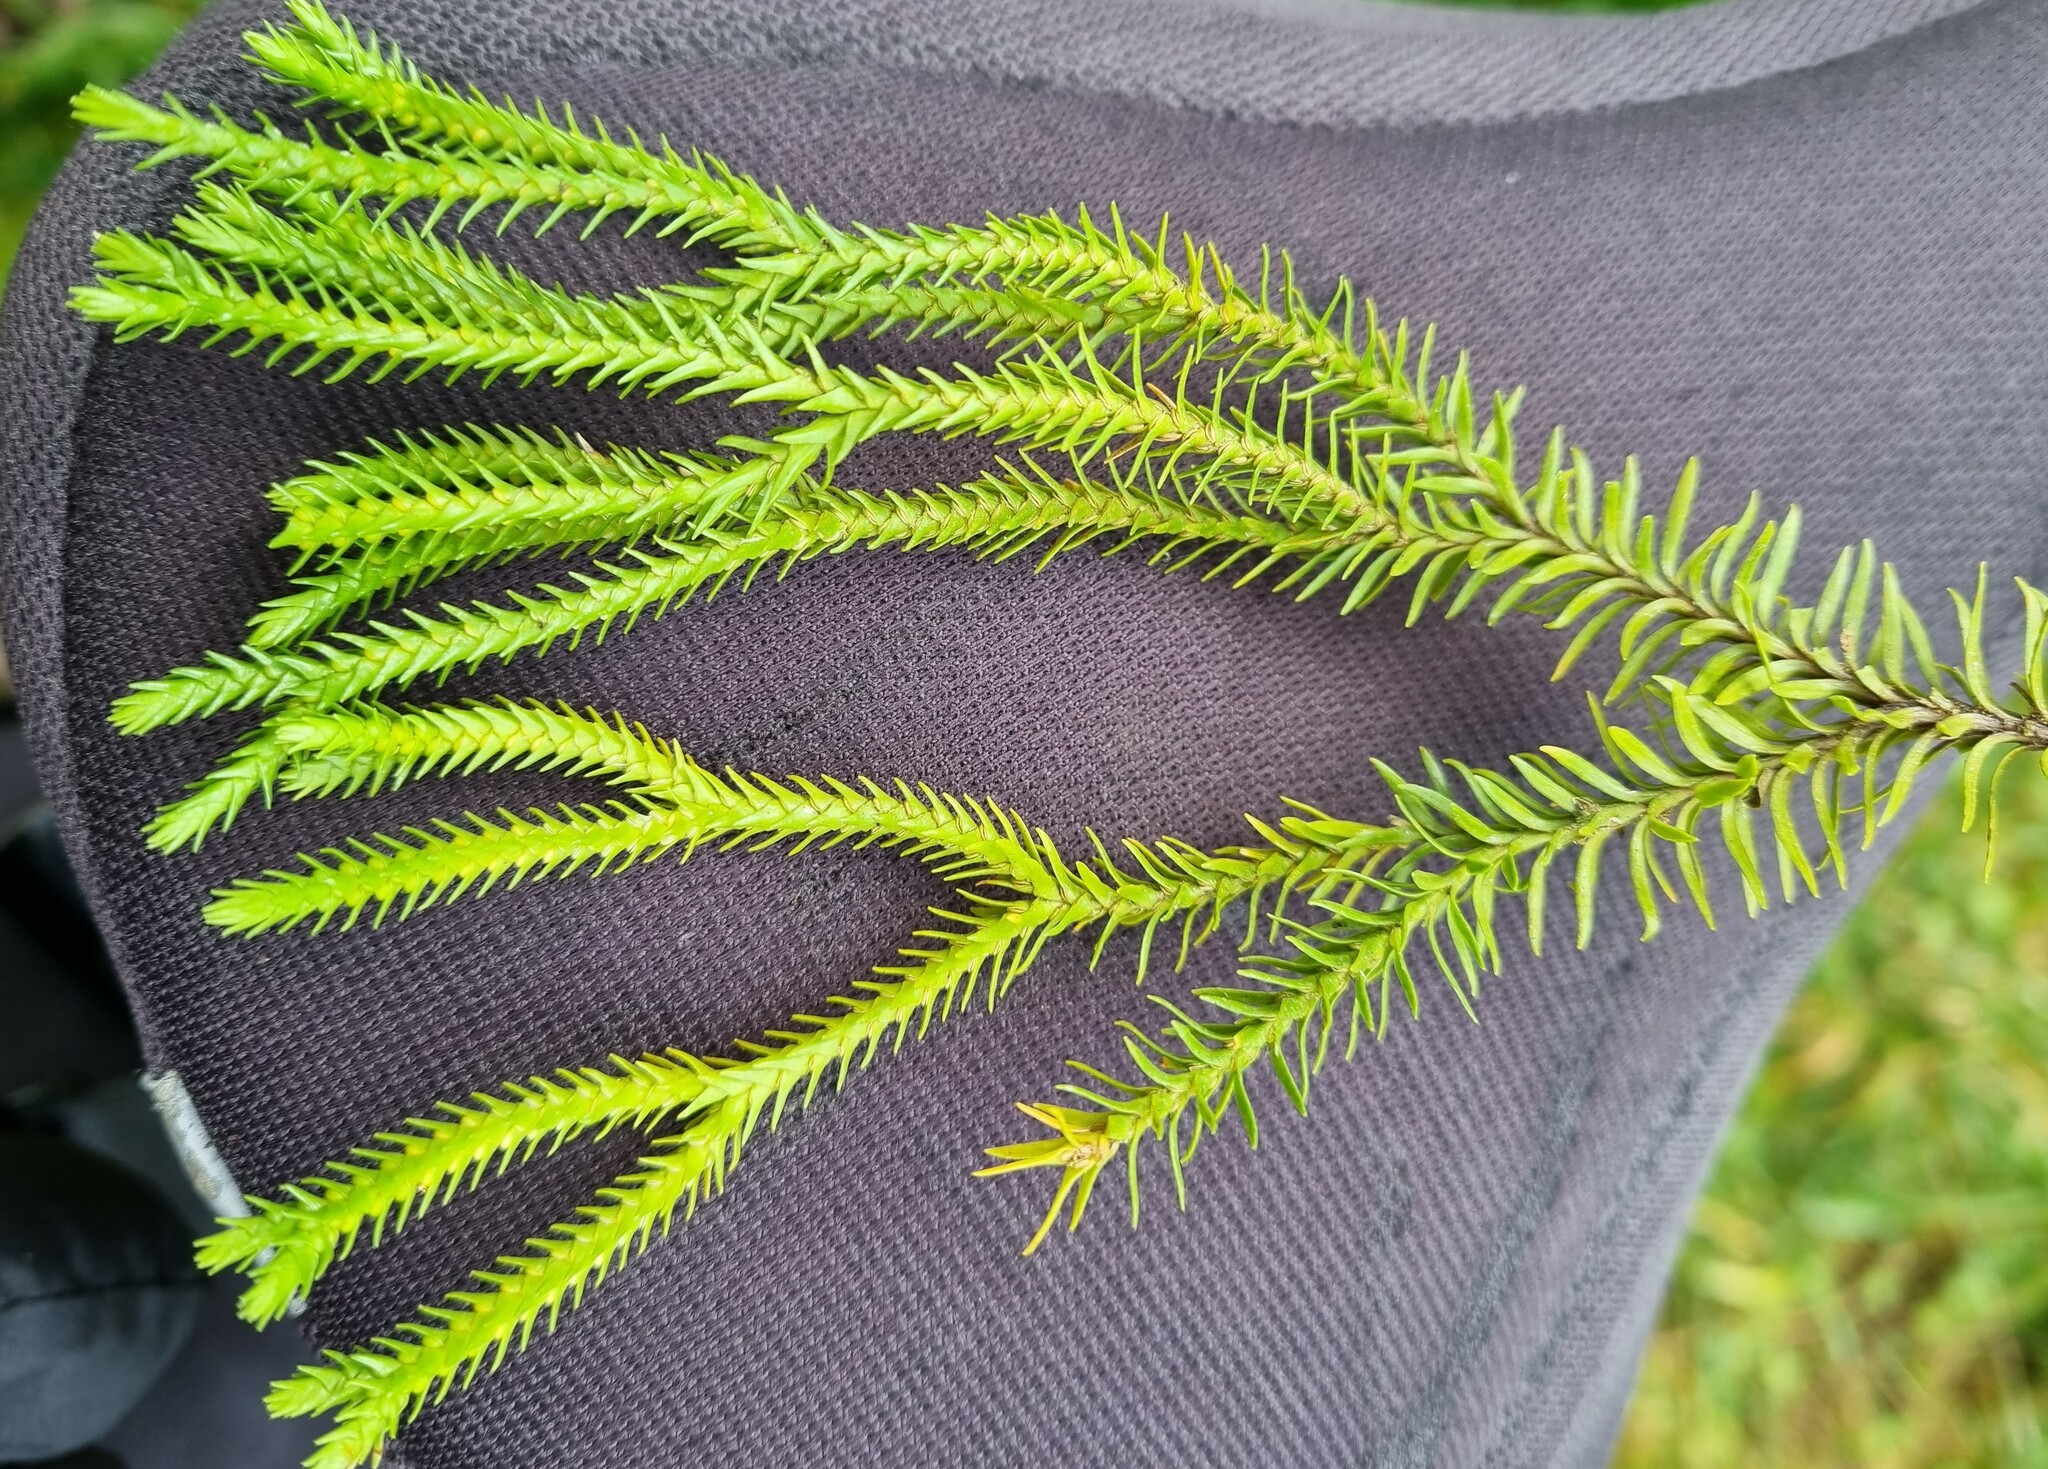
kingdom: Plantae
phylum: Tracheophyta
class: Lycopodiopsida
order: Lycopodiales
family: Lycopodiaceae
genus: Phlegmariurus
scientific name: Phlegmariurus varius
